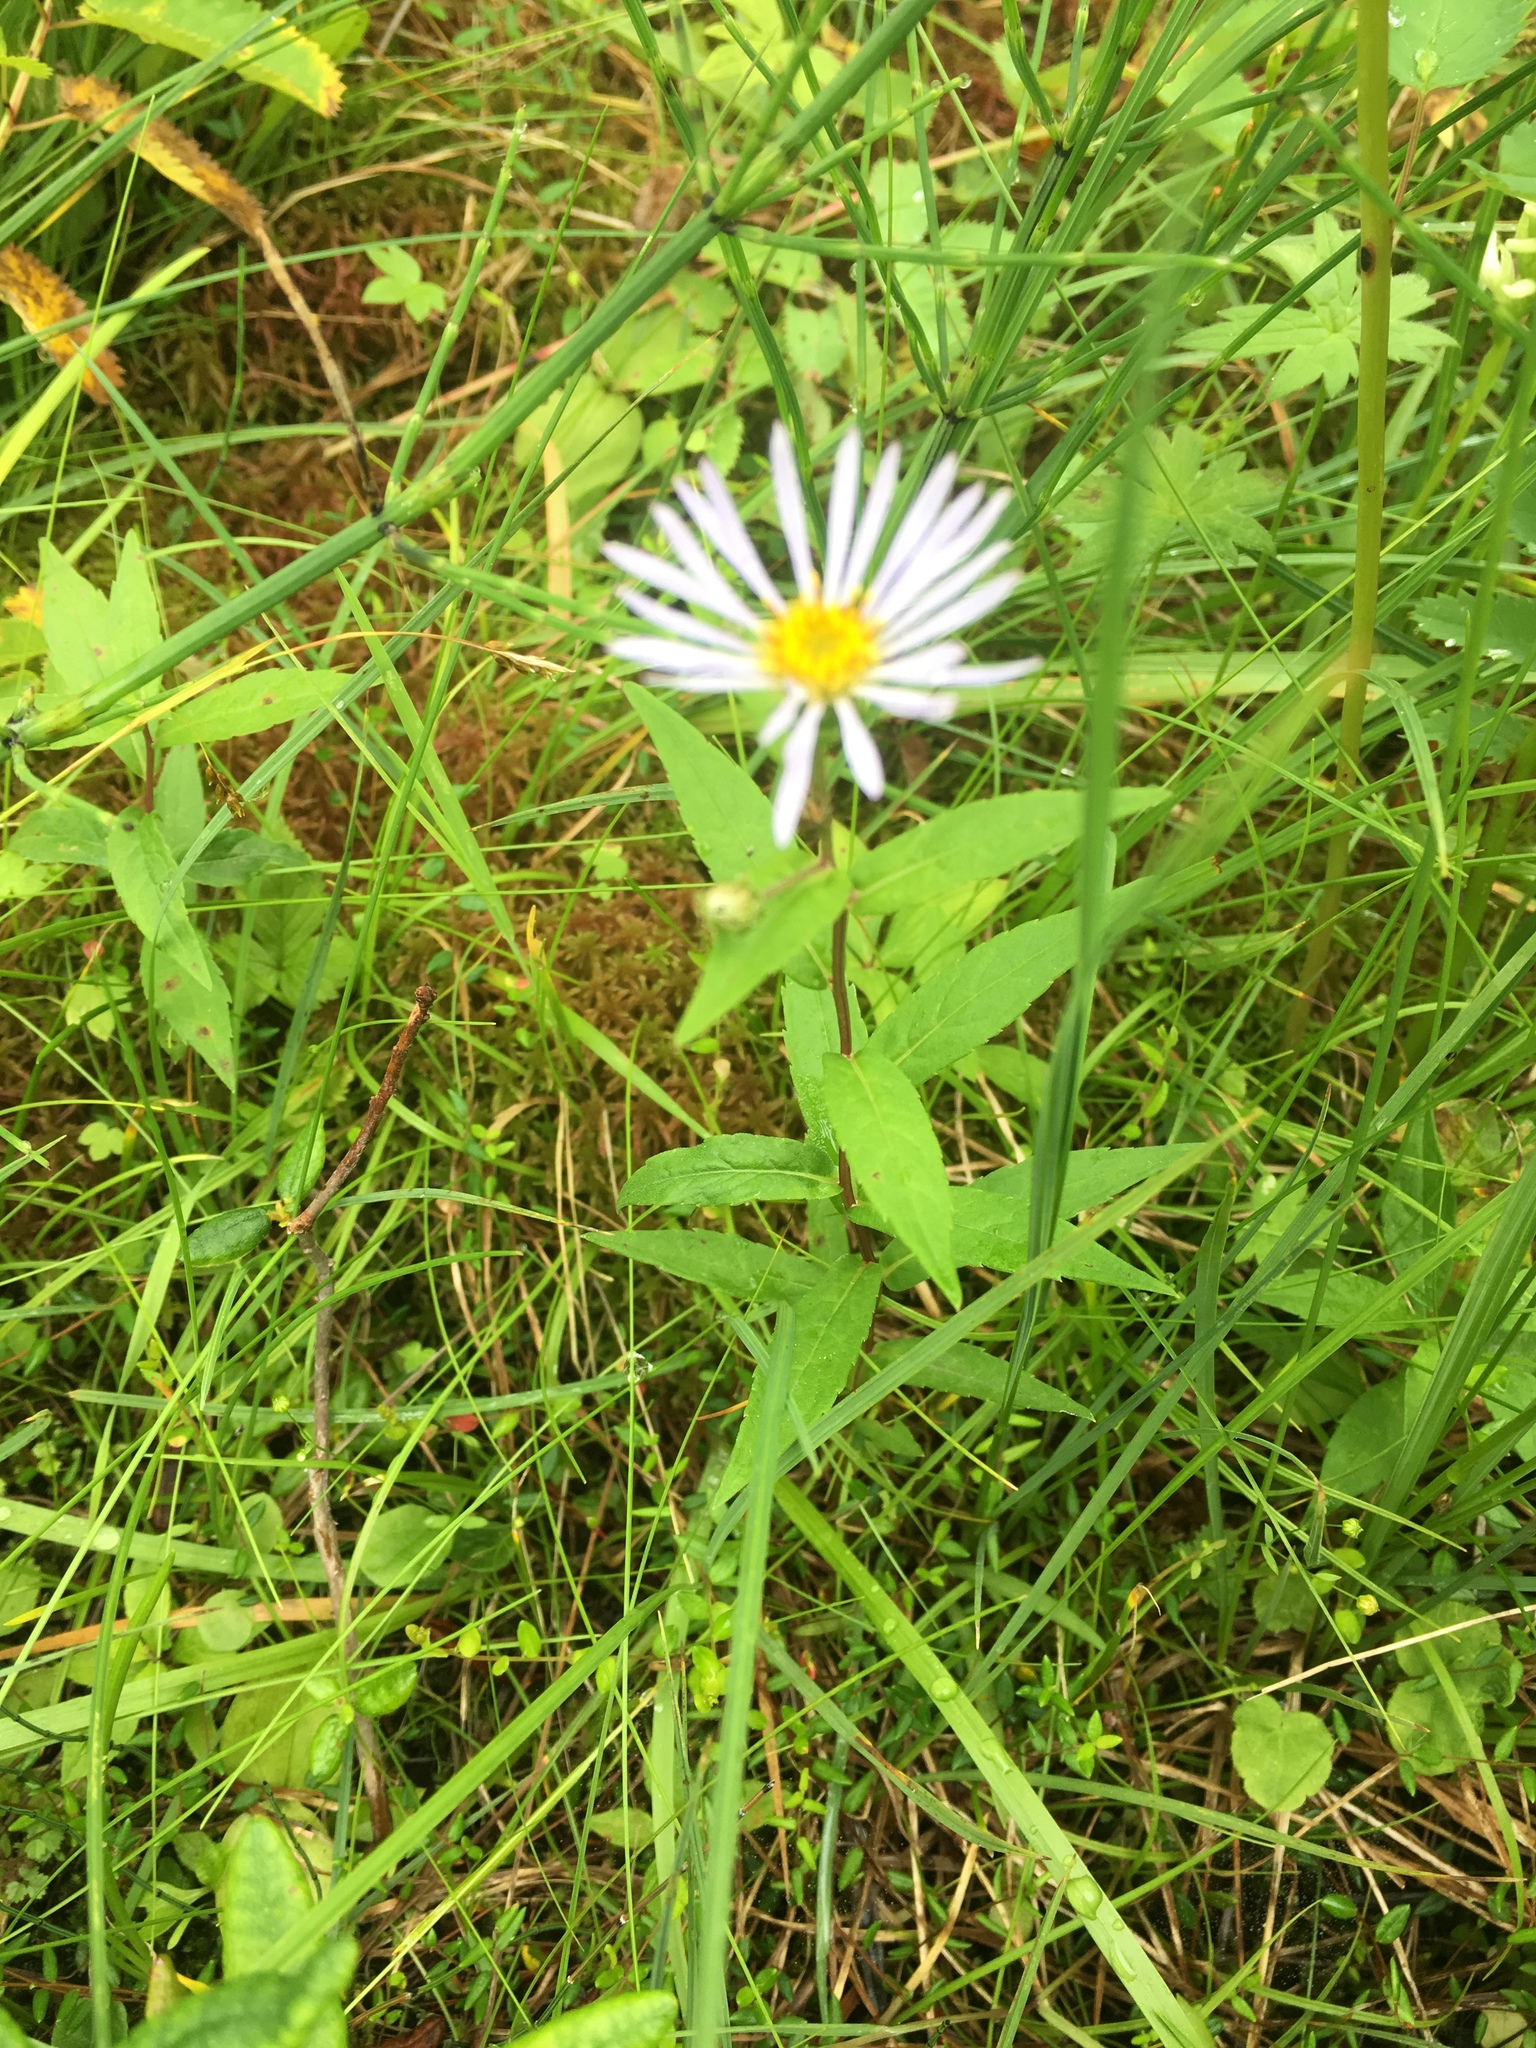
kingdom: Plantae
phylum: Tracheophyta
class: Magnoliopsida
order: Asterales
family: Asteraceae
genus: Eurybia
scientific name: Eurybia radula
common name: Low rough aster
